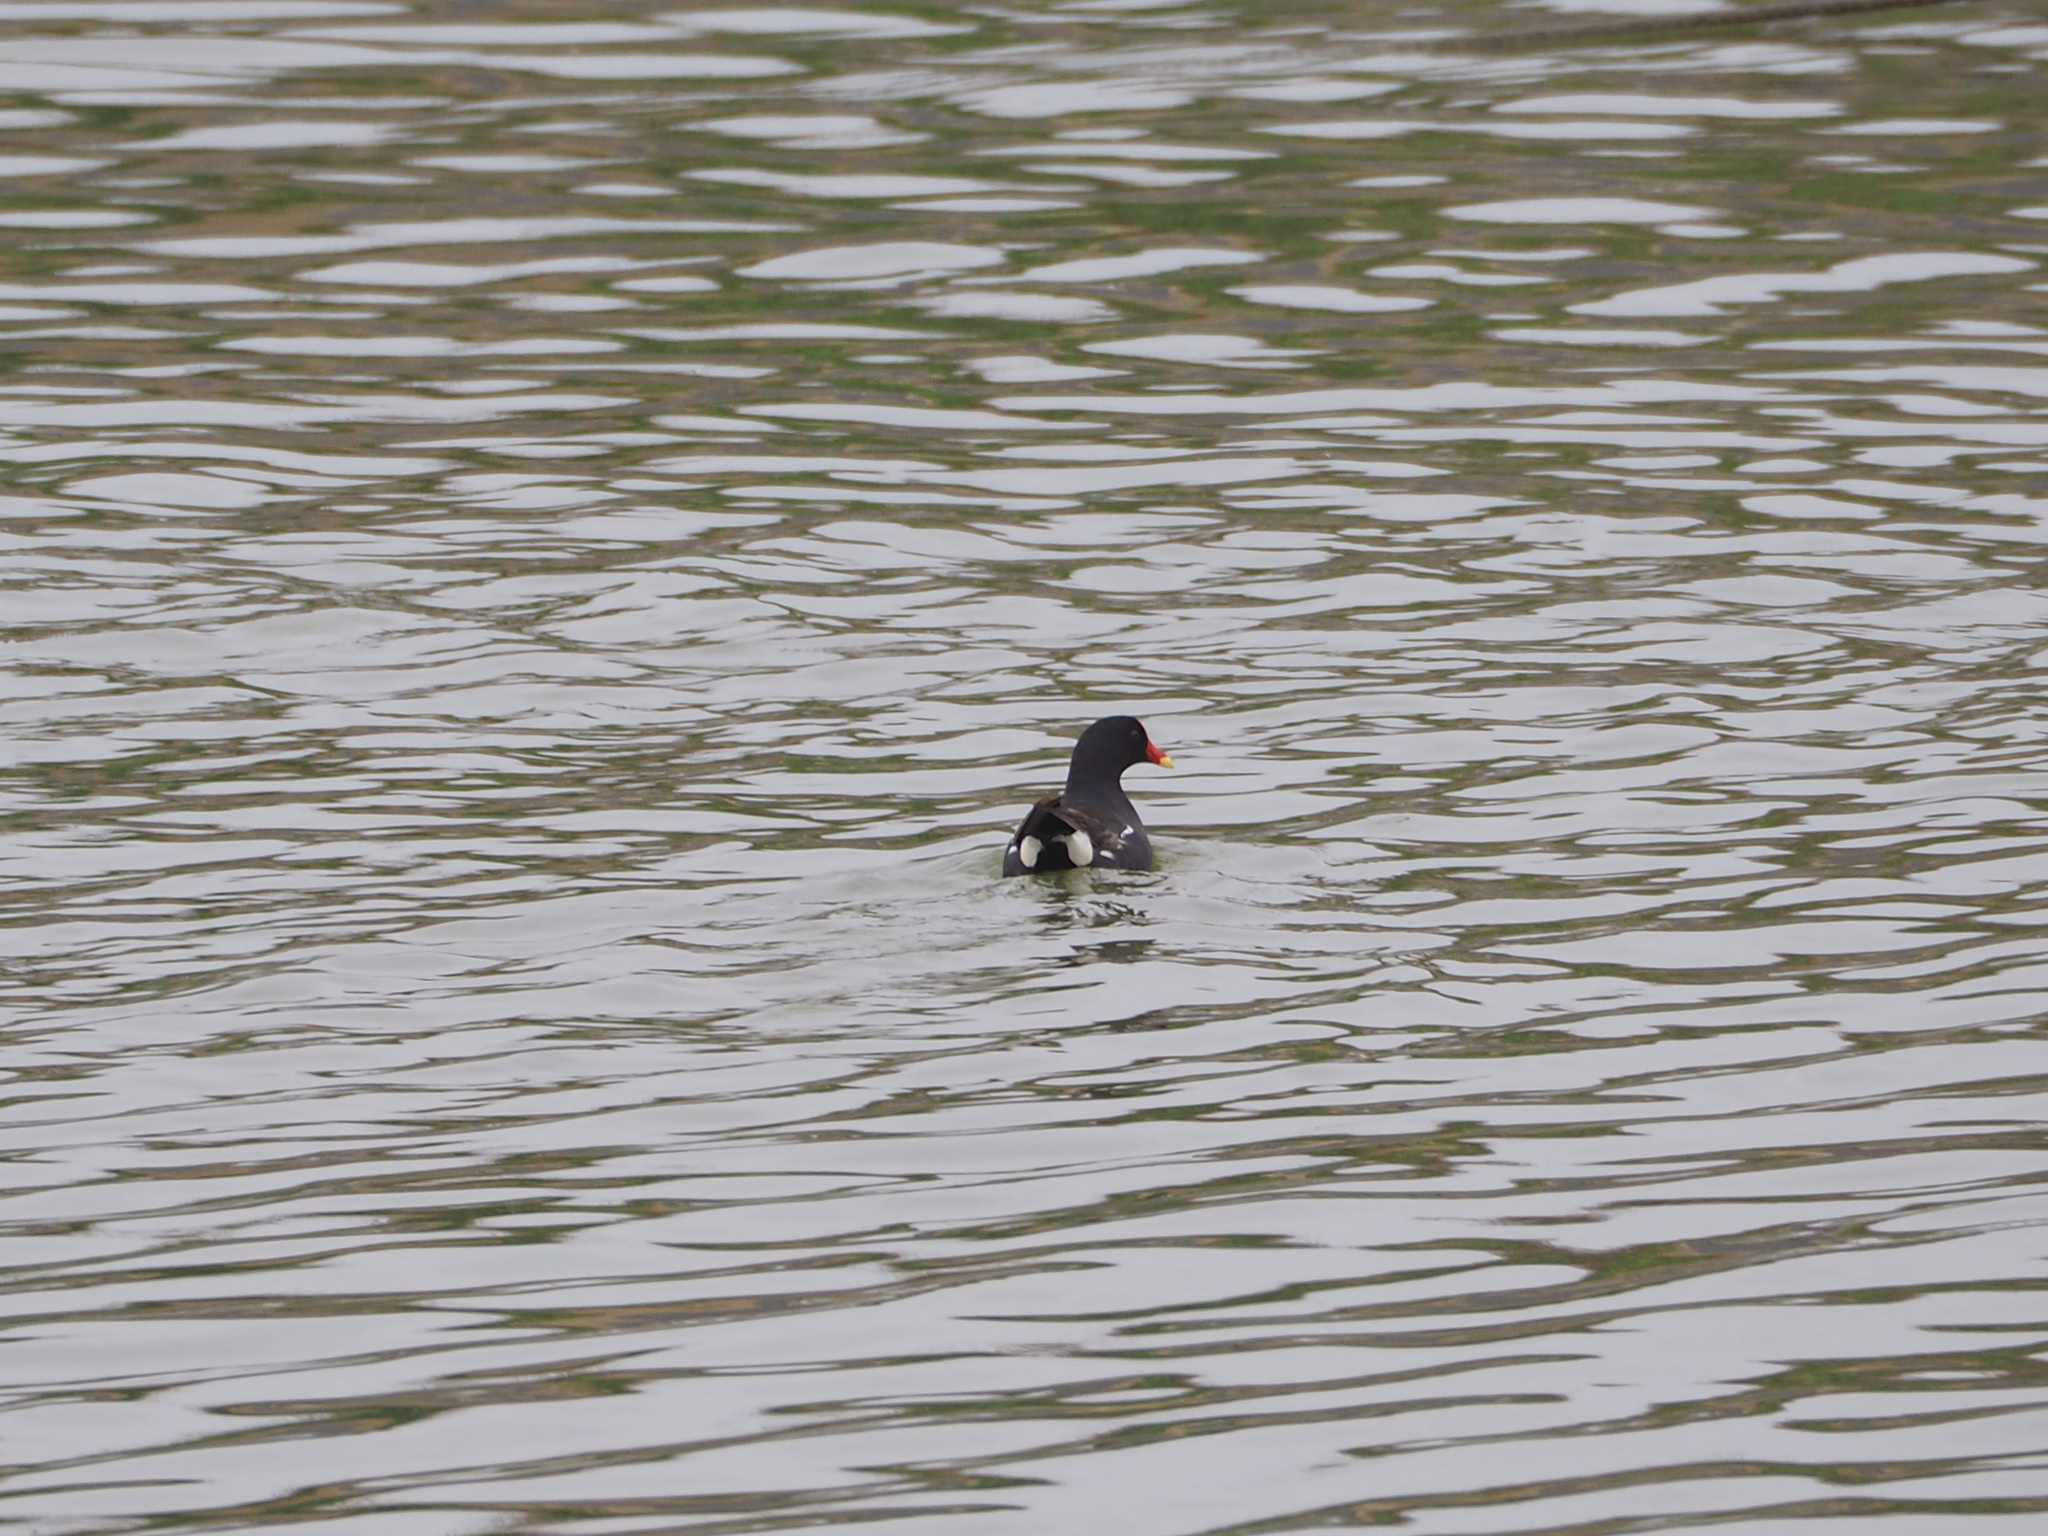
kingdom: Animalia
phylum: Chordata
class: Aves
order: Gruiformes
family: Rallidae
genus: Gallinula
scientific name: Gallinula chloropus
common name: Common moorhen
